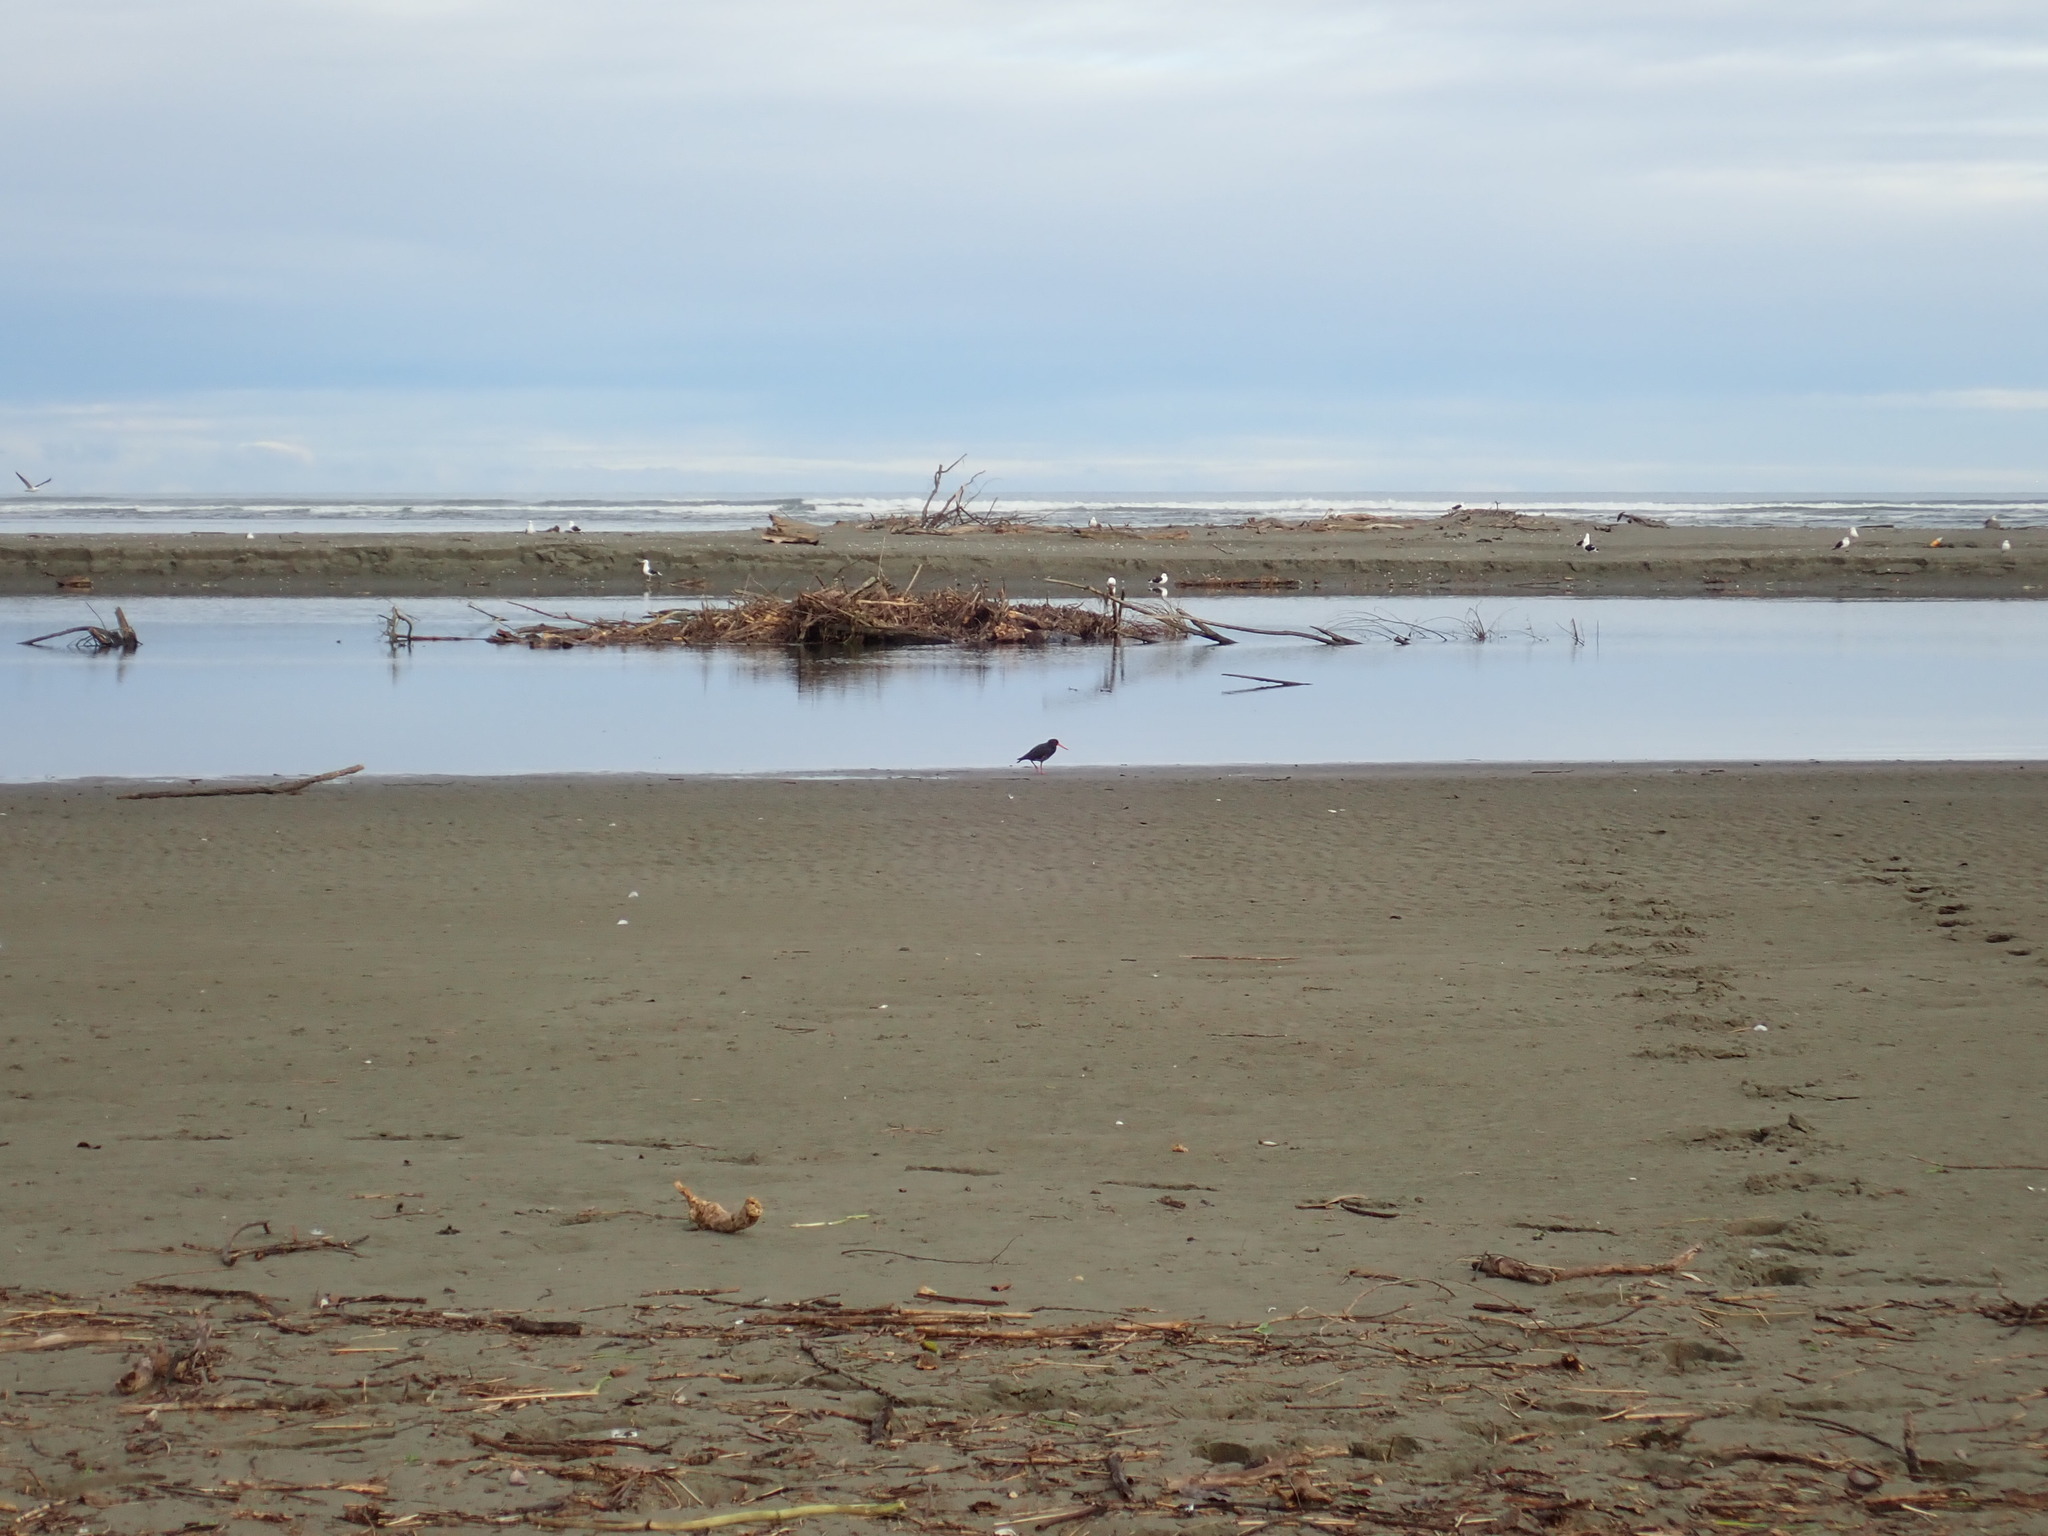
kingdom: Animalia
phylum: Chordata
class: Aves
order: Charadriiformes
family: Haematopodidae
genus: Haematopus
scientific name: Haematopus unicolor
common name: Variable oystercatcher
